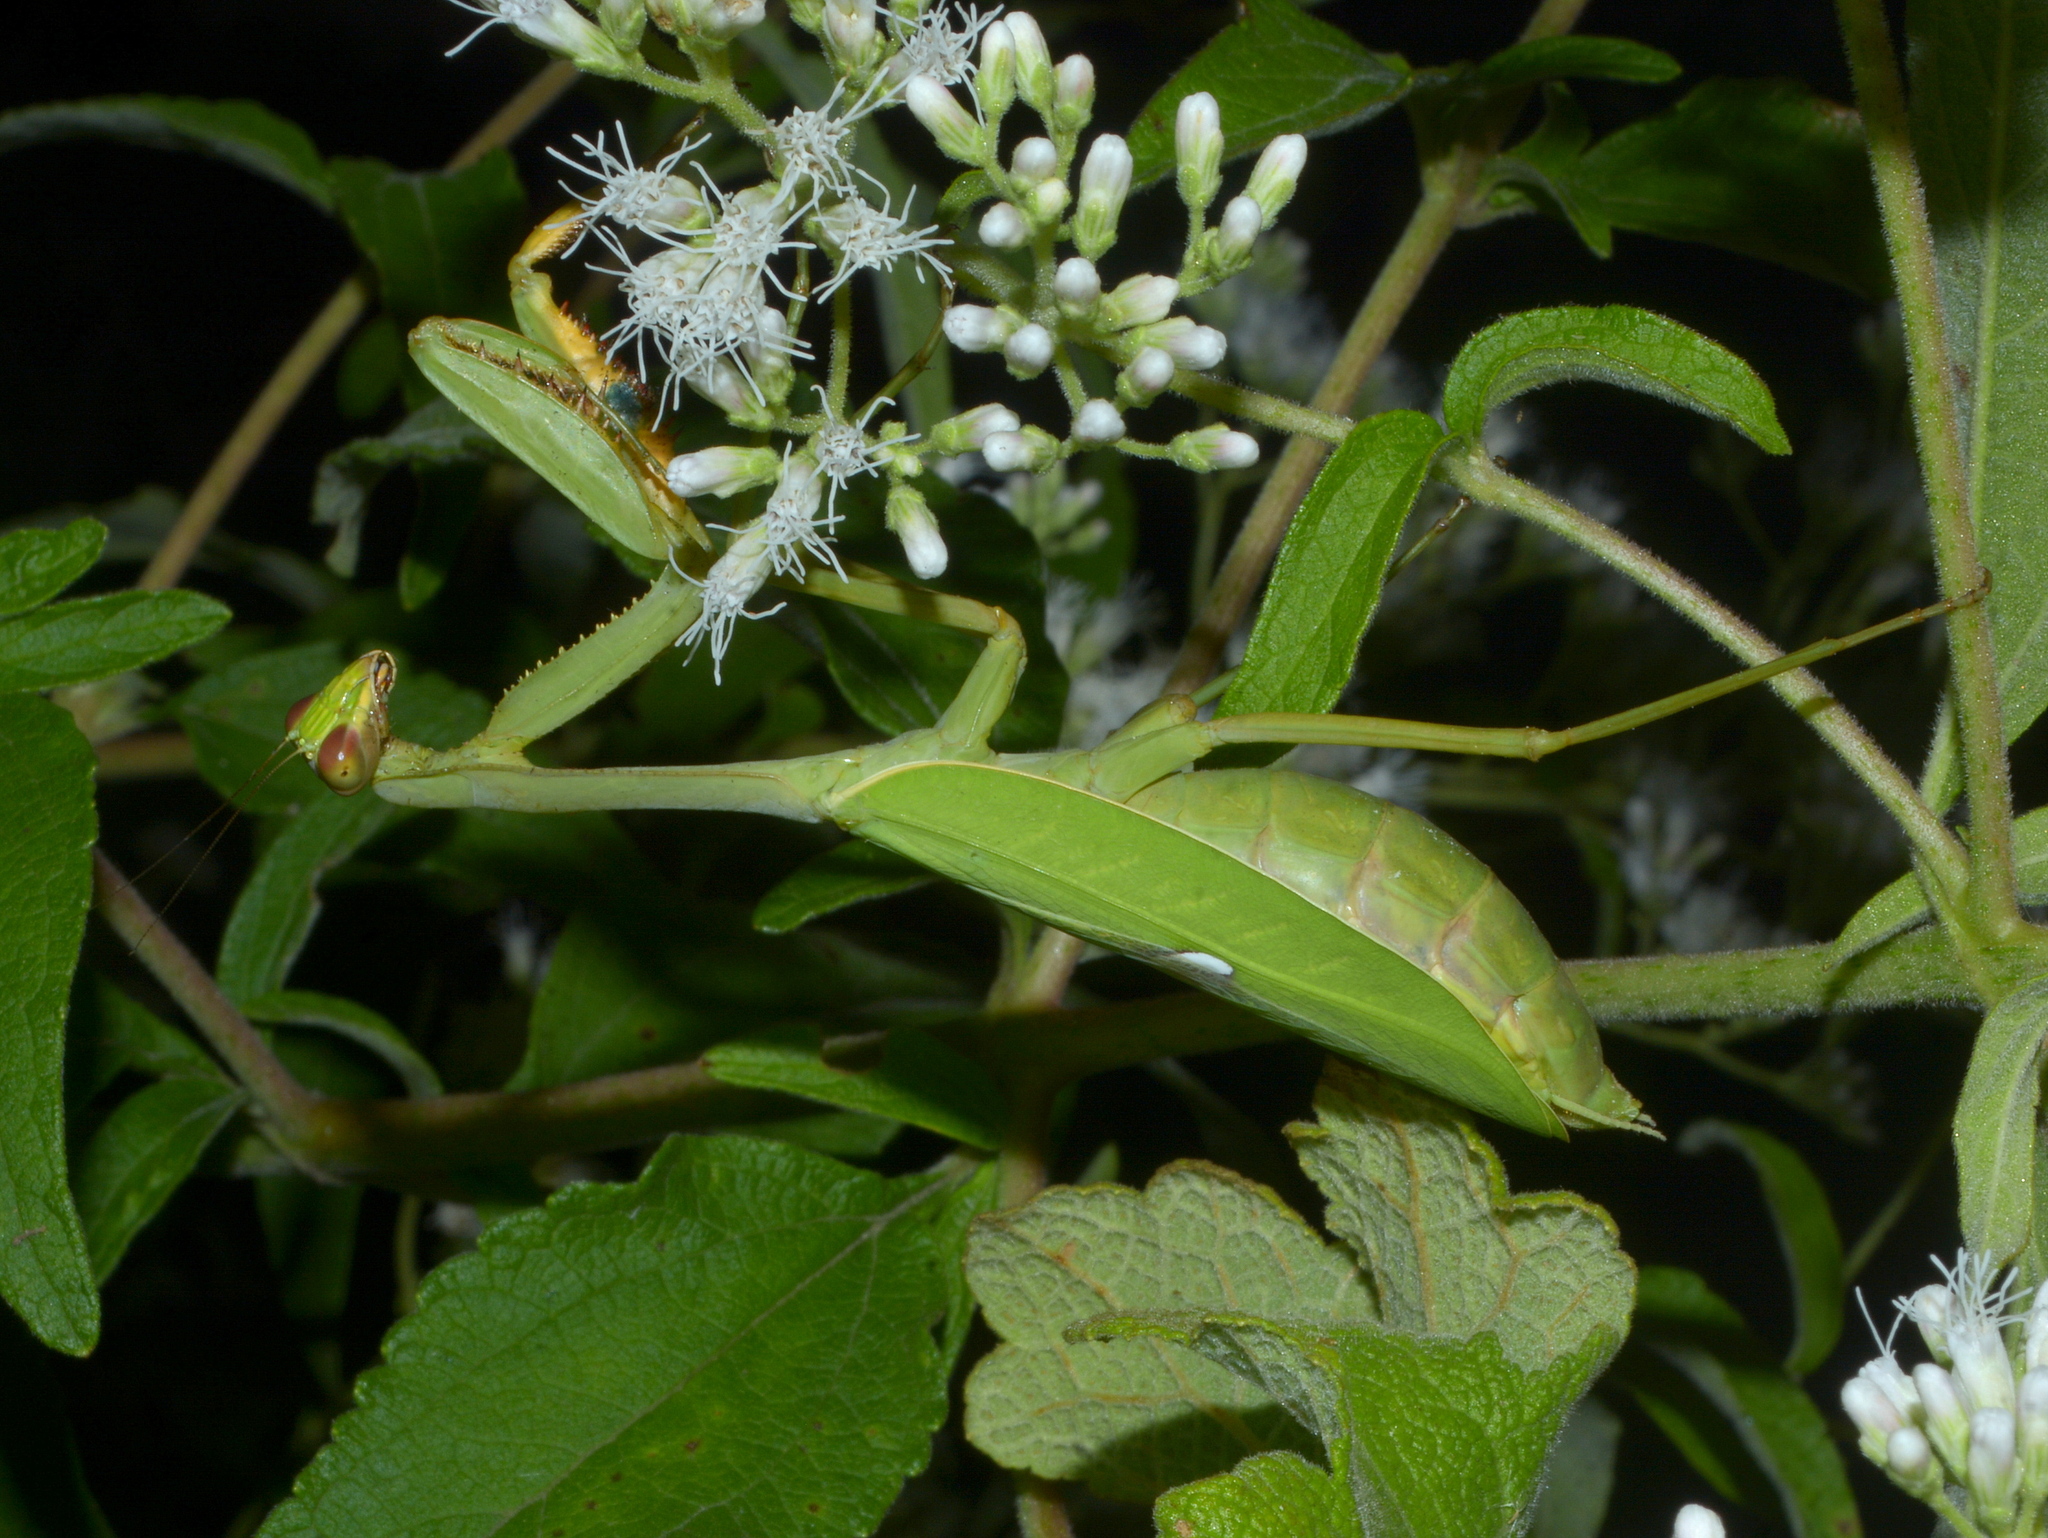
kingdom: Animalia
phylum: Arthropoda
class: Insecta
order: Mantodea
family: Mantidae
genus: Stagmatoptera
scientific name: Stagmatoptera hyaloptera
